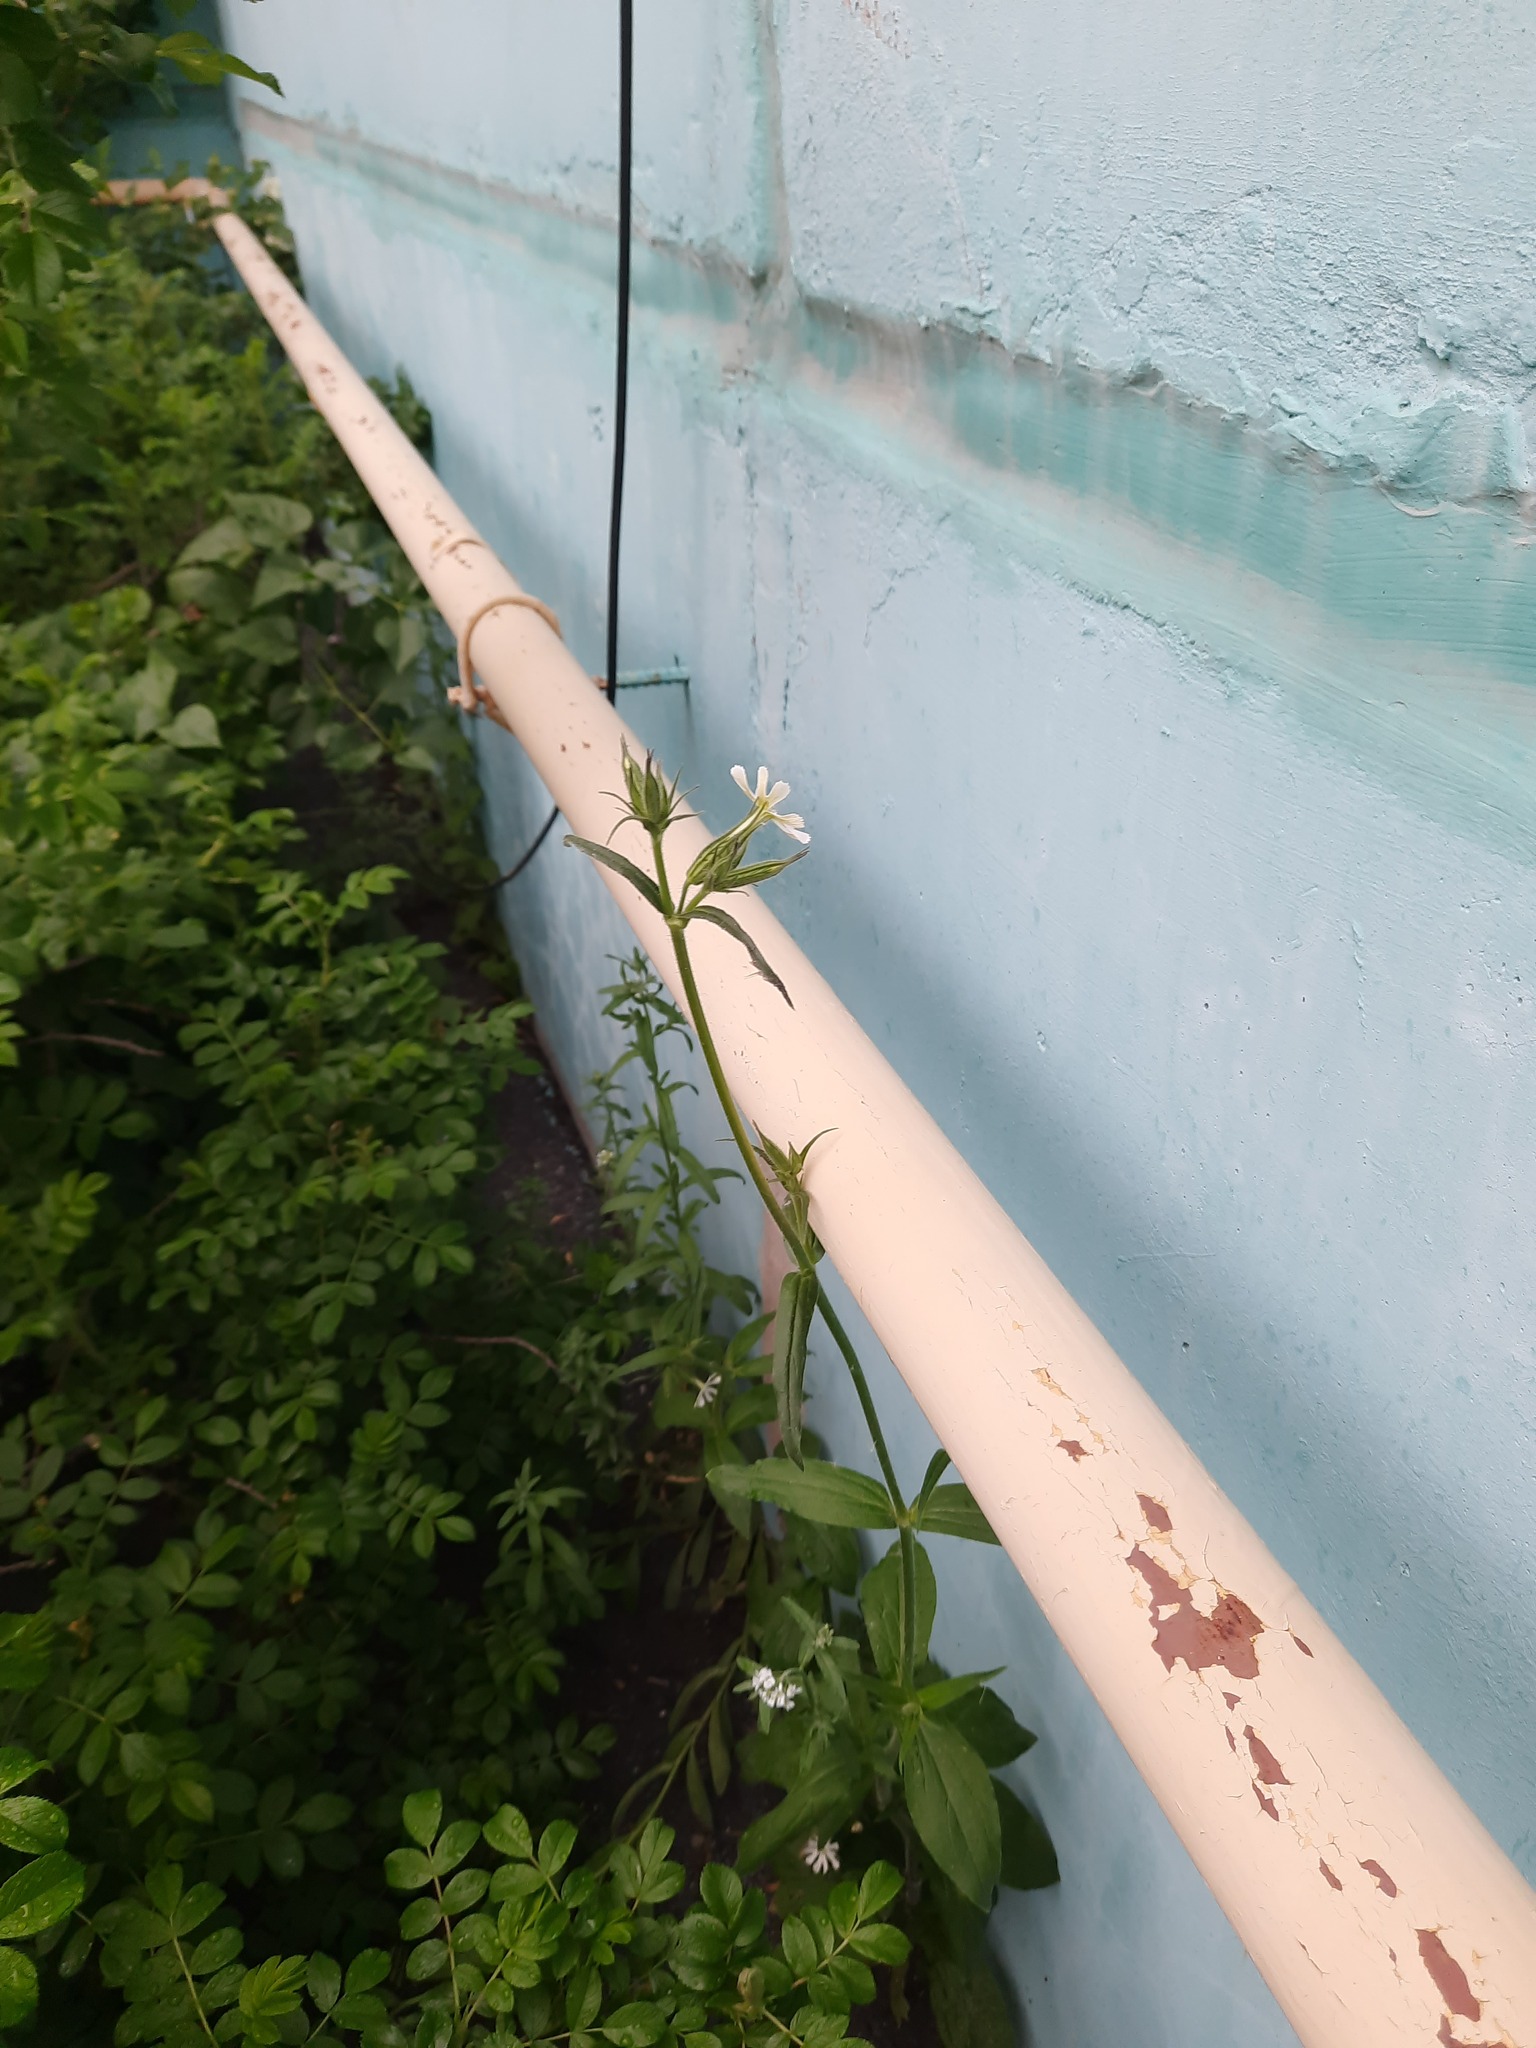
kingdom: Plantae
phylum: Tracheophyta
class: Magnoliopsida
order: Caryophyllales
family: Caryophyllaceae
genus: Silene
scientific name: Silene noctiflora
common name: Night-flowering catchfly
